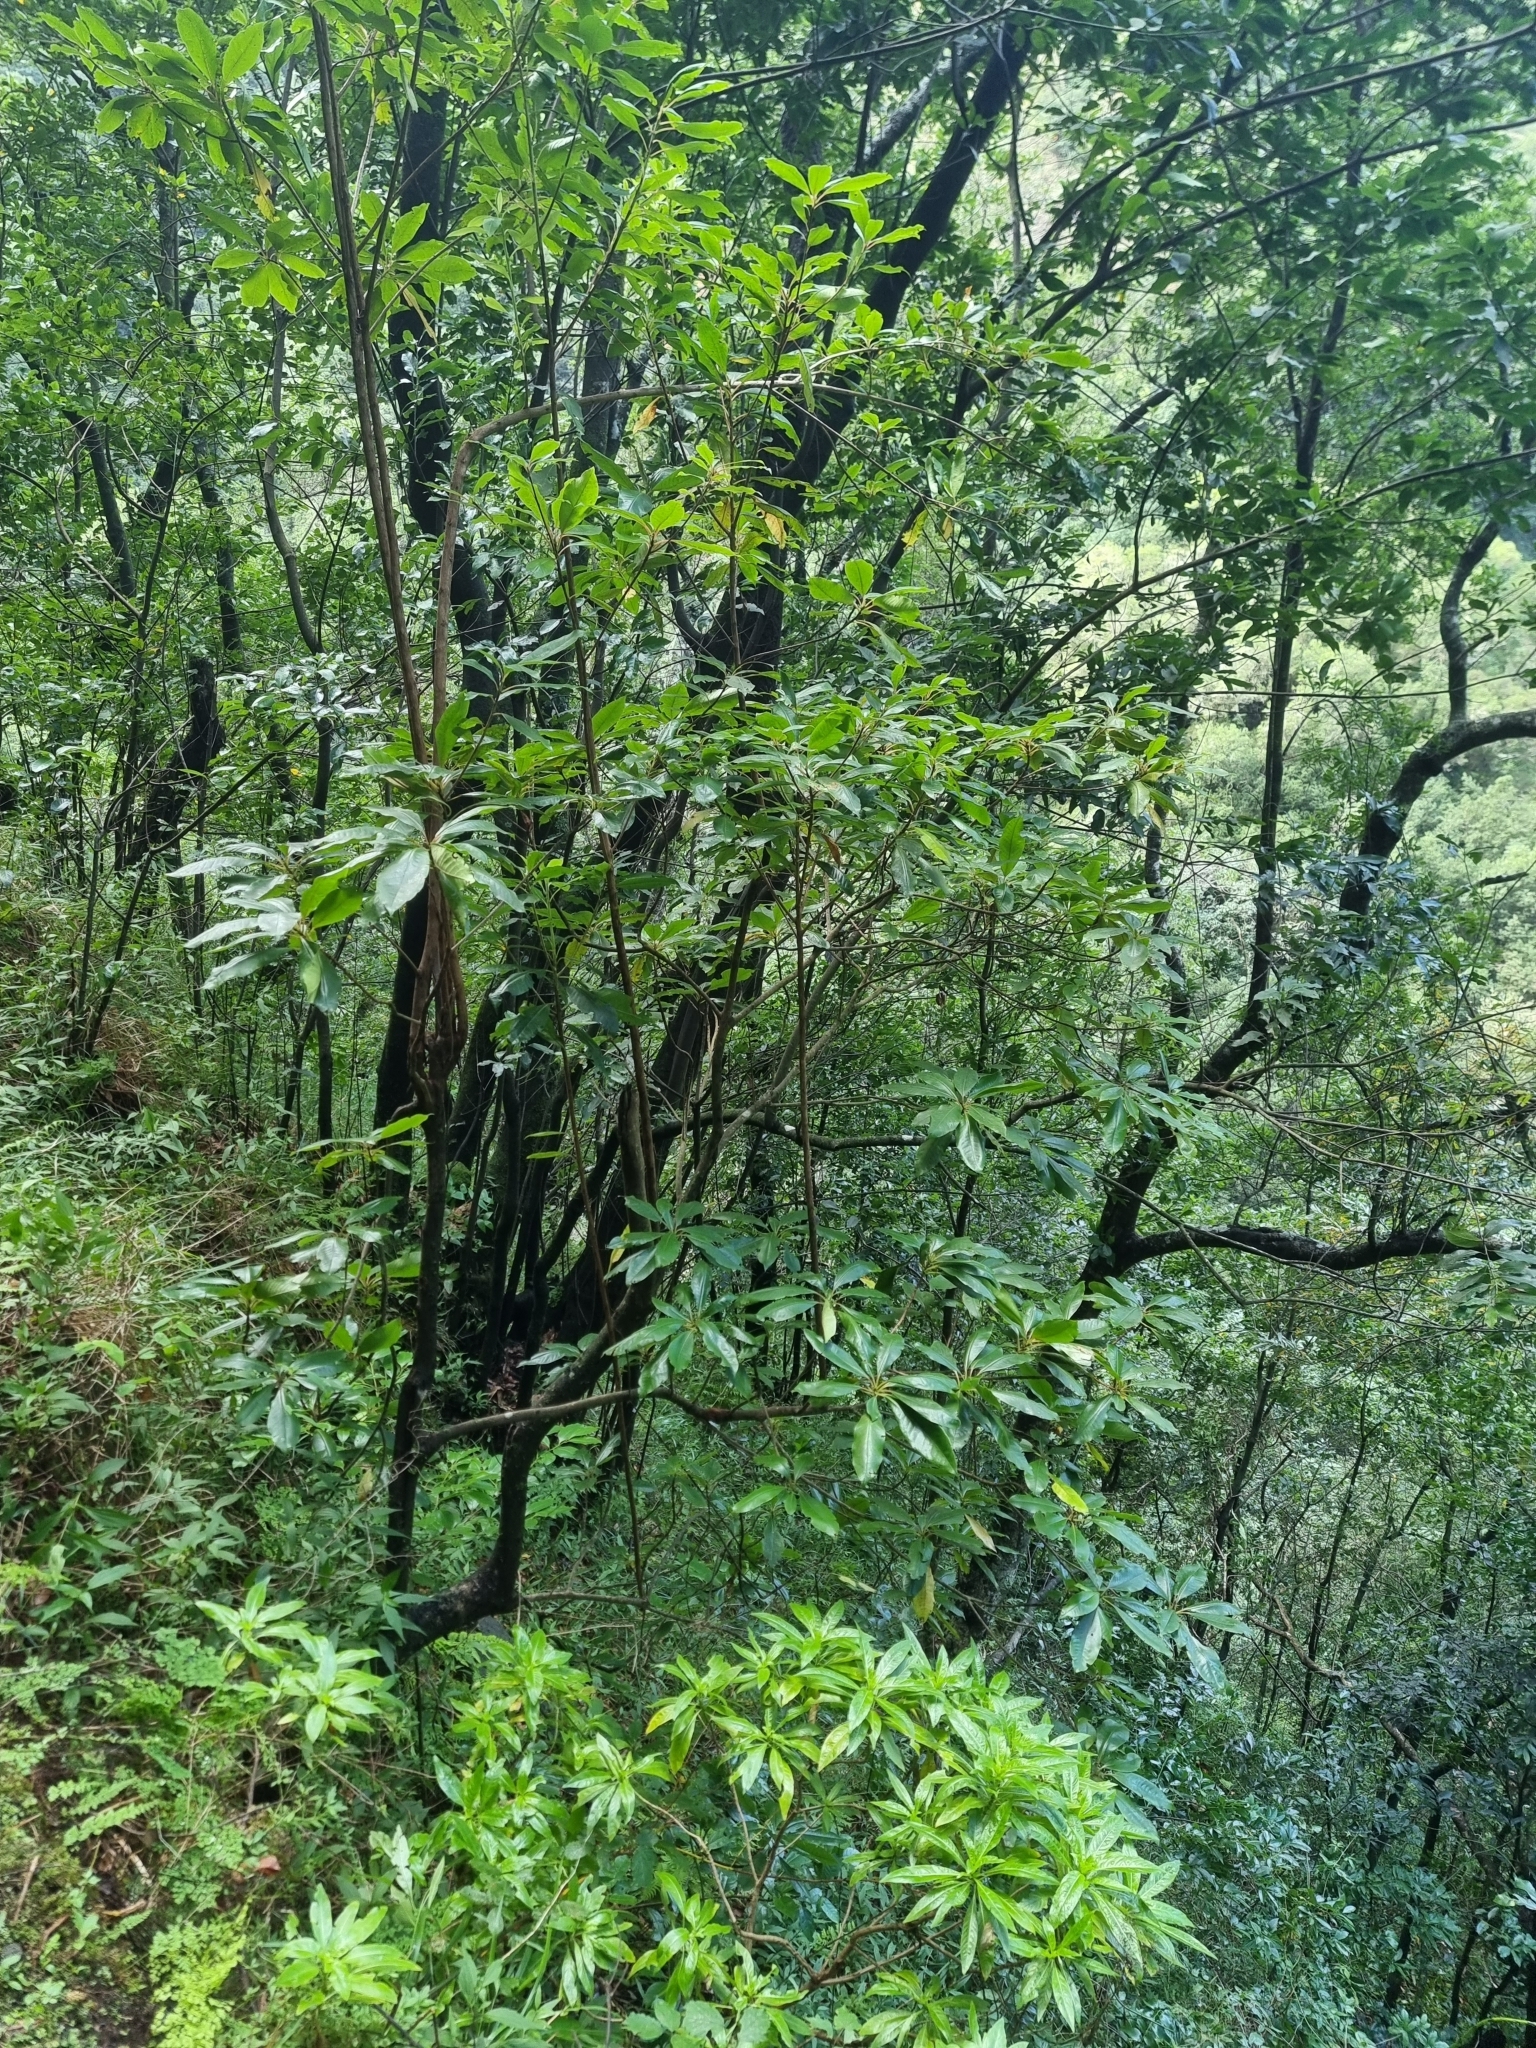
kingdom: Plantae
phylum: Tracheophyta
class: Magnoliopsida
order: Ericales
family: Clethraceae
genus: Clethra
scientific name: Clethra arborea
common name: Lily-of-the-valley-tree
